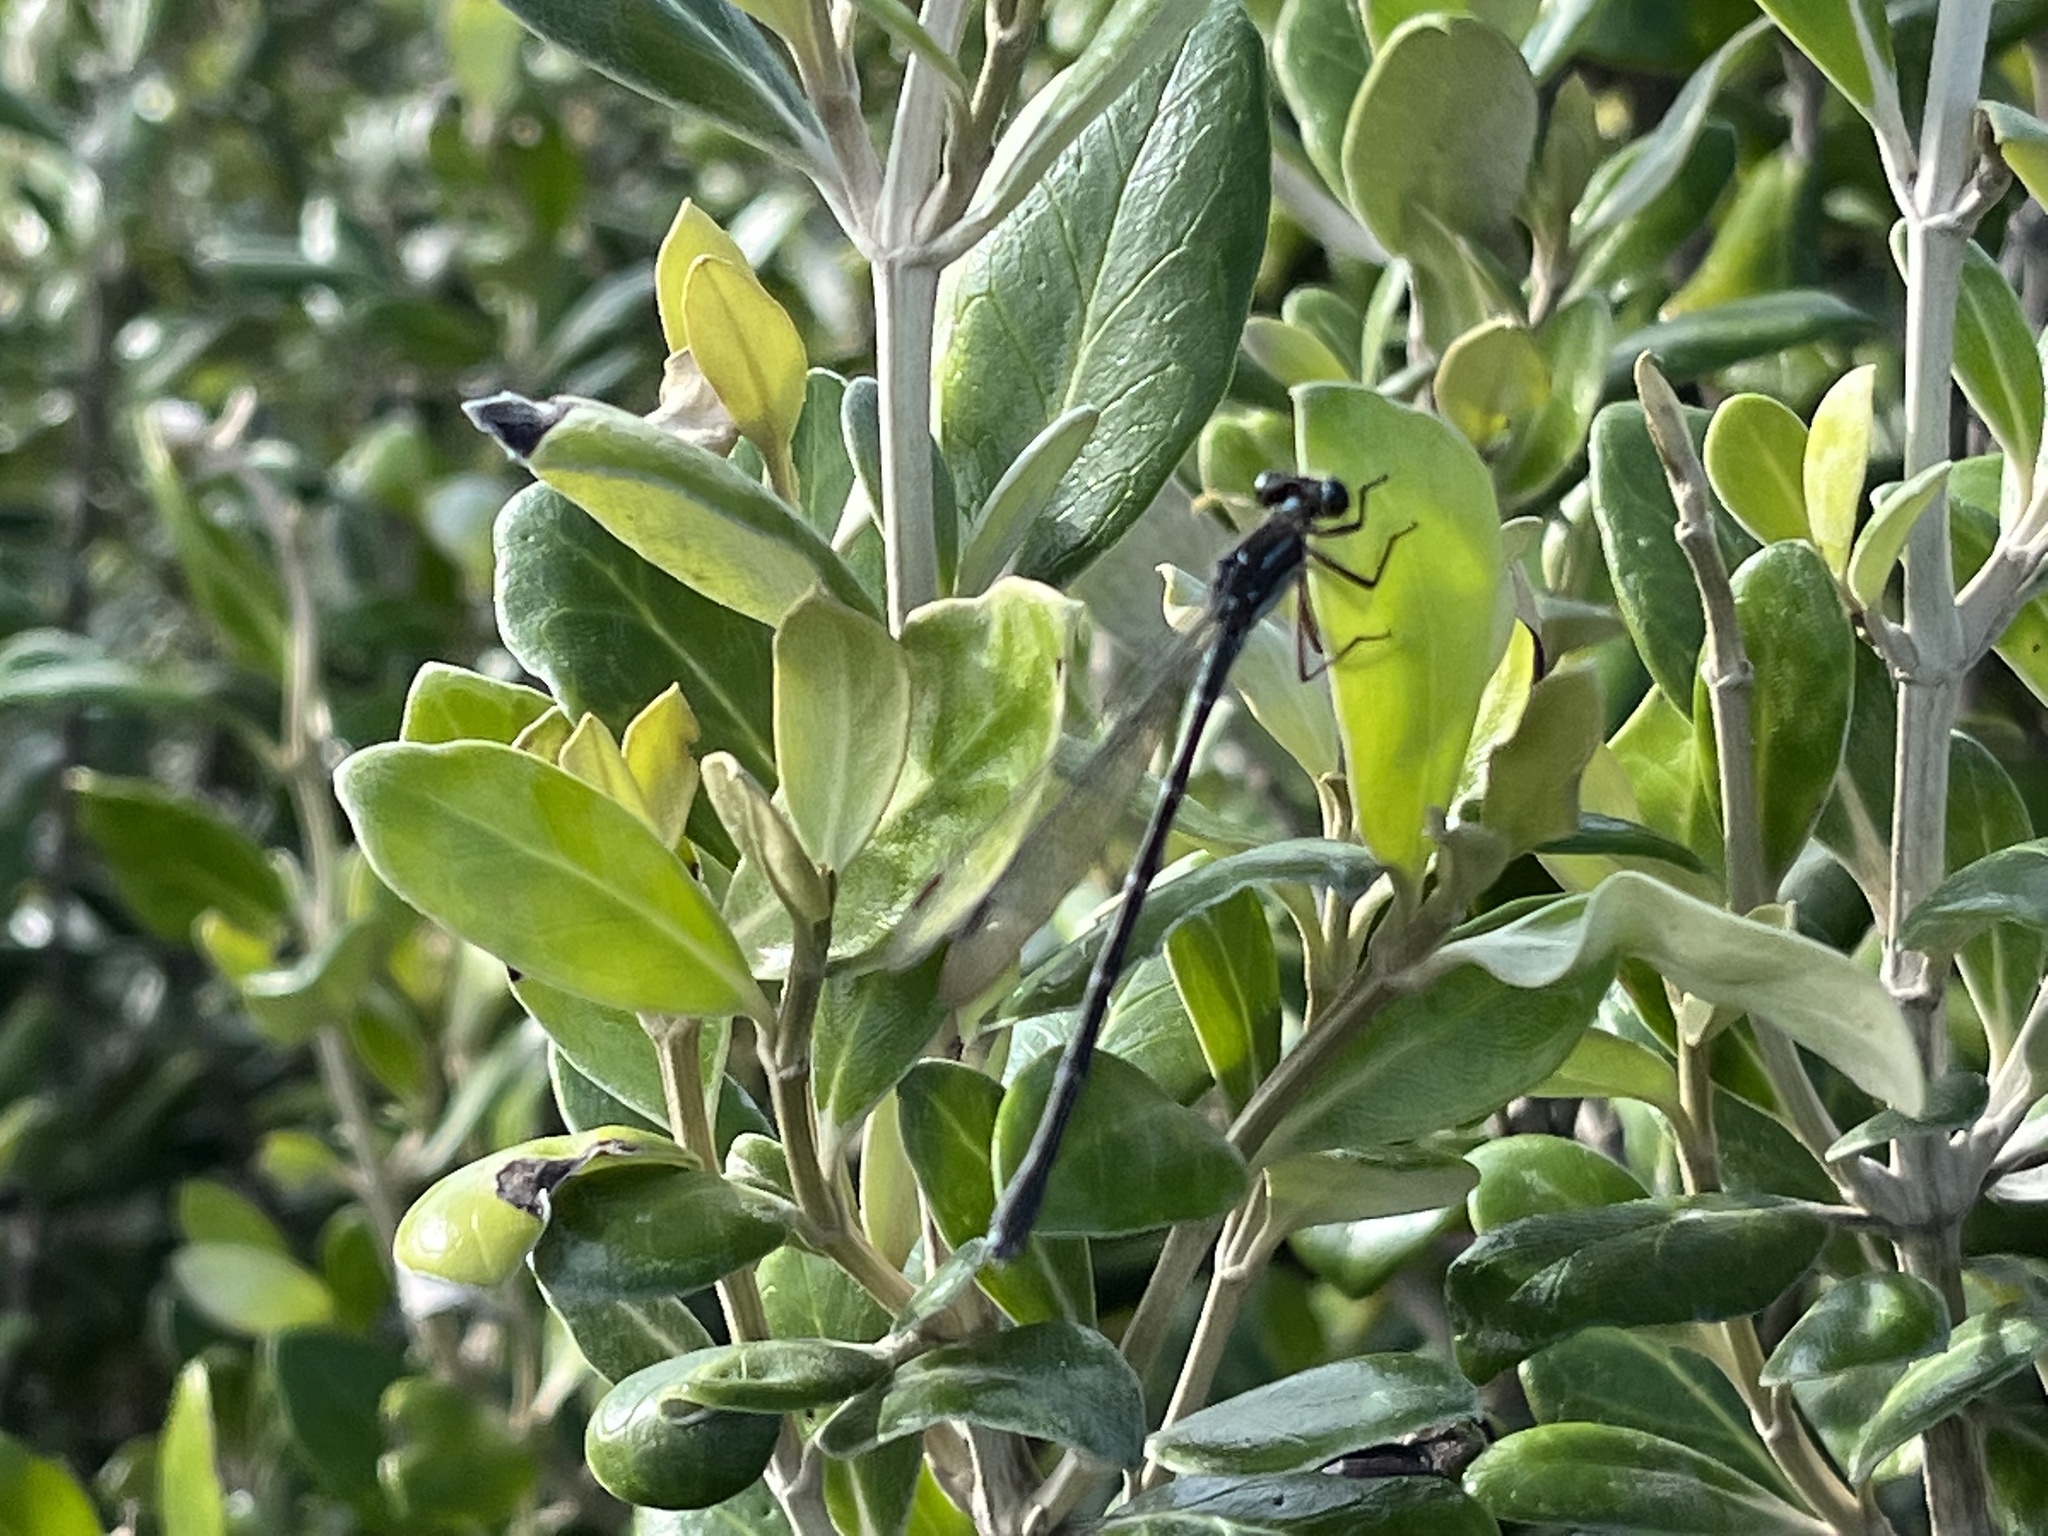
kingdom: Animalia
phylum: Arthropoda
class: Insecta
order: Odonata
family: Lestidae
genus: Austrolestes
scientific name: Austrolestes colensonis
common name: Blue damselfly
